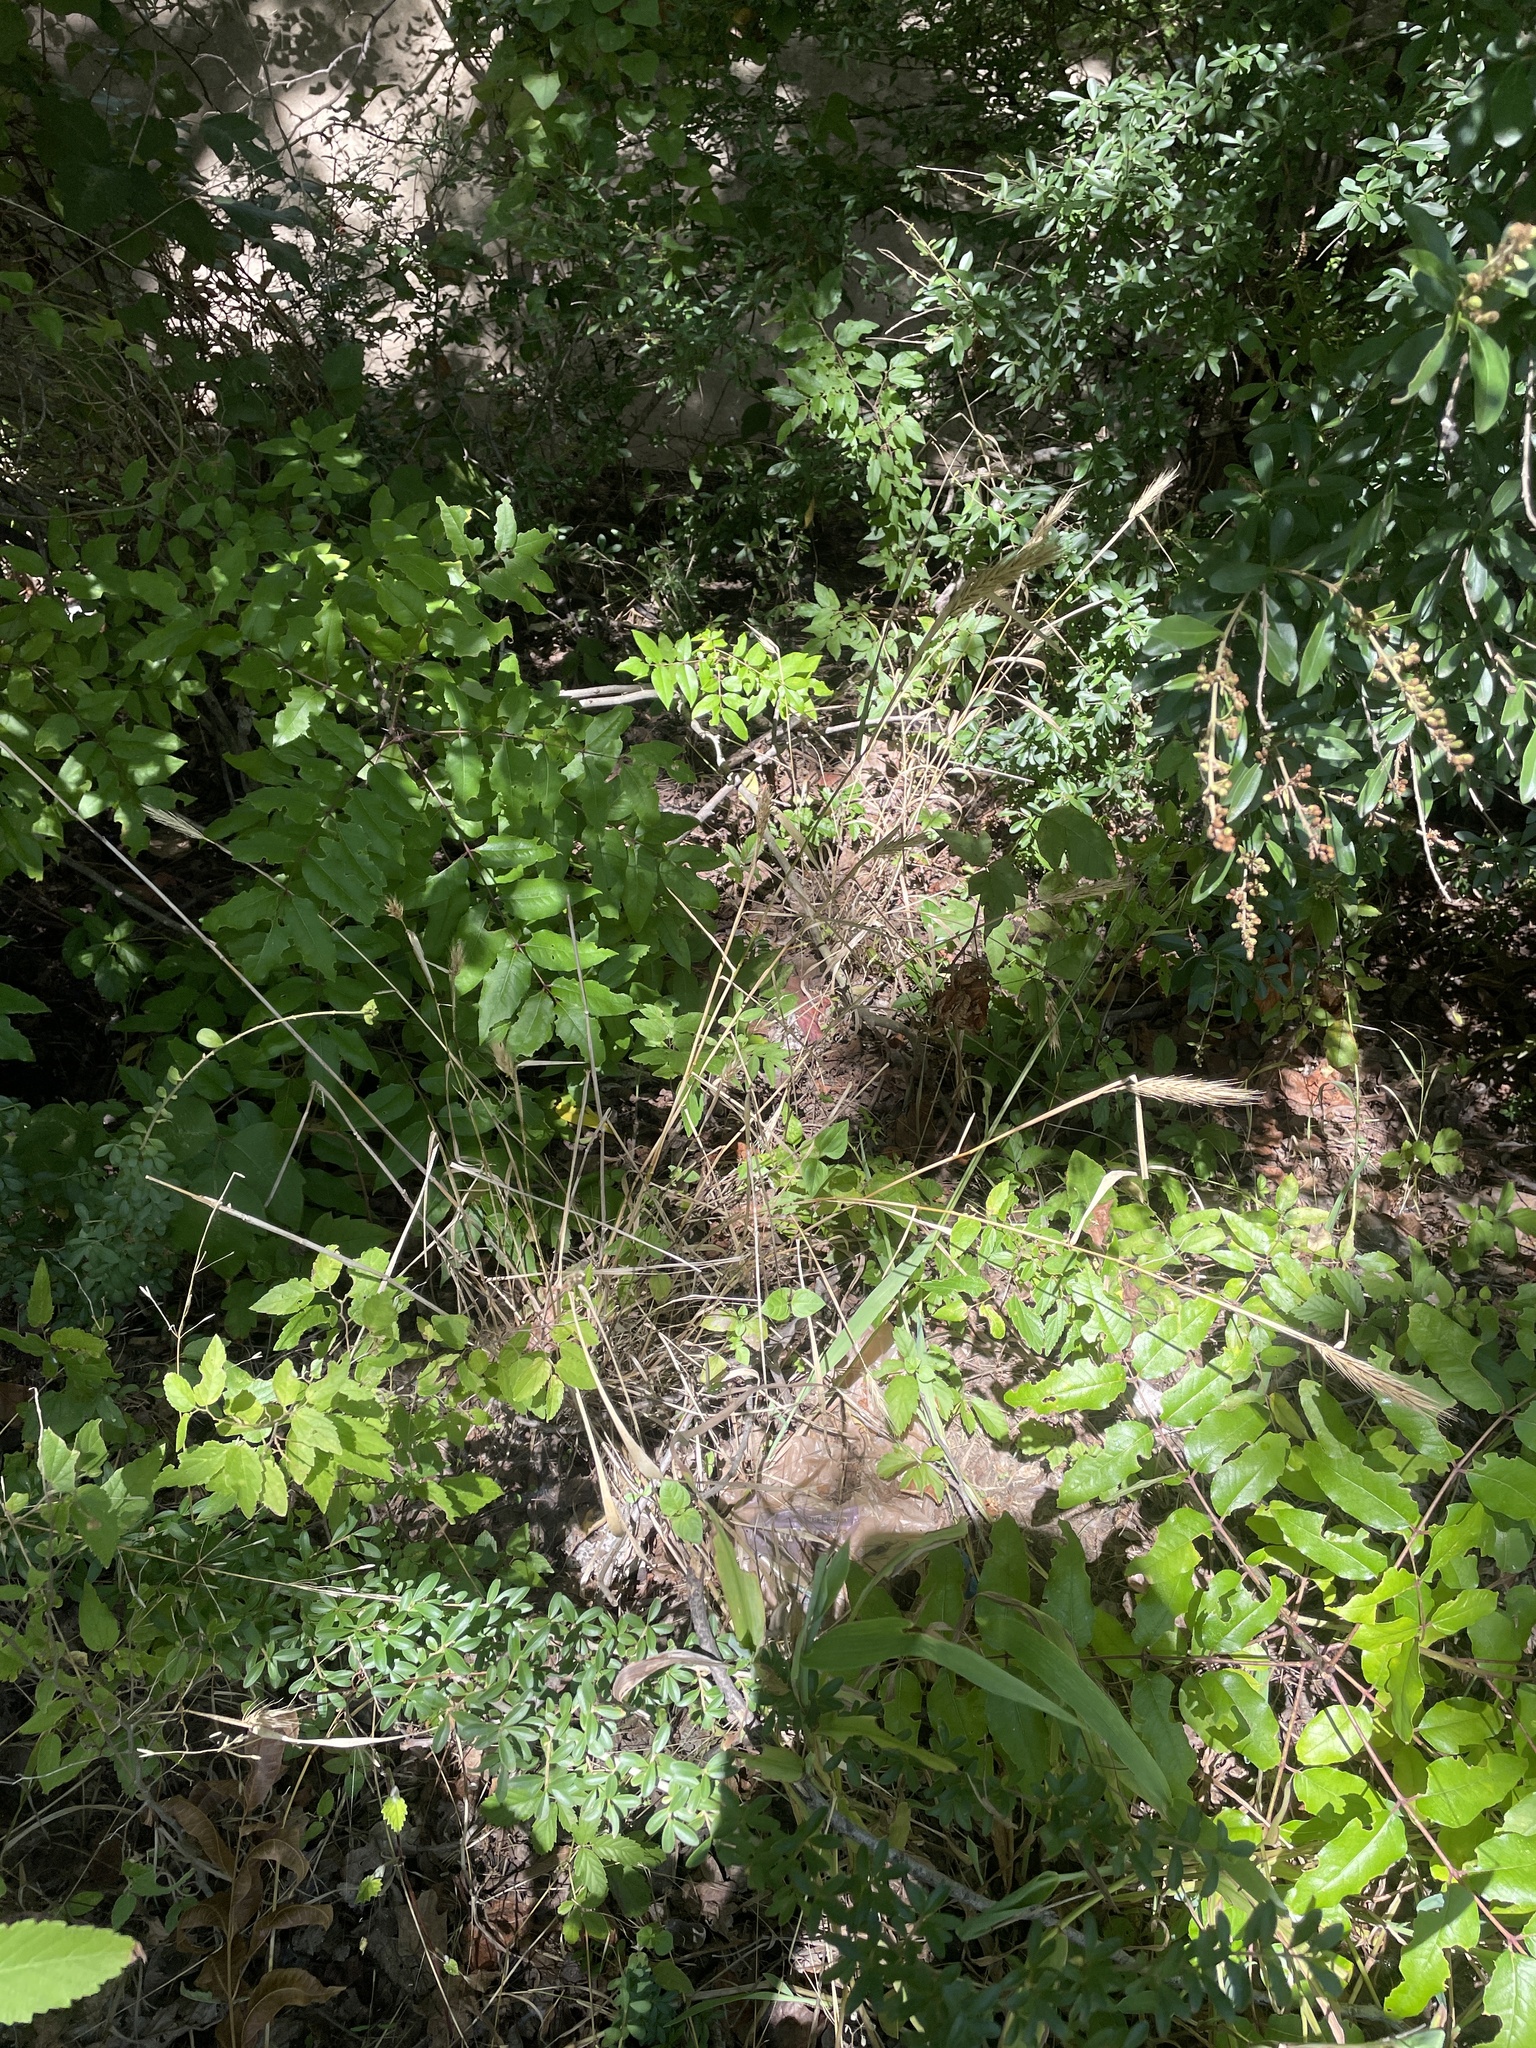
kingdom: Plantae
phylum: Tracheophyta
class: Liliopsida
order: Poales
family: Poaceae
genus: Elymus
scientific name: Elymus virginicus
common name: Common eastern wildrye
